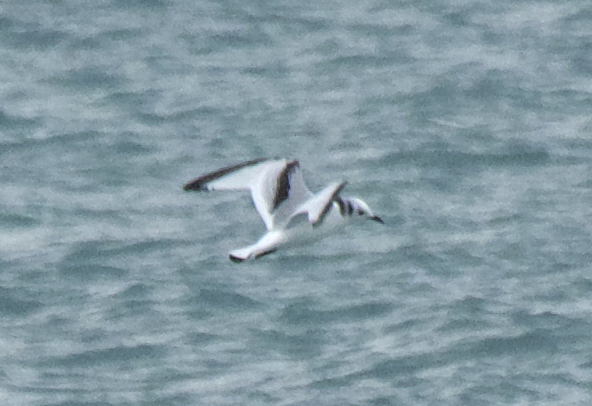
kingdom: Animalia
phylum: Chordata
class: Aves
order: Charadriiformes
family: Laridae
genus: Rissa
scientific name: Rissa tridactyla
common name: Black-legged kittiwake
